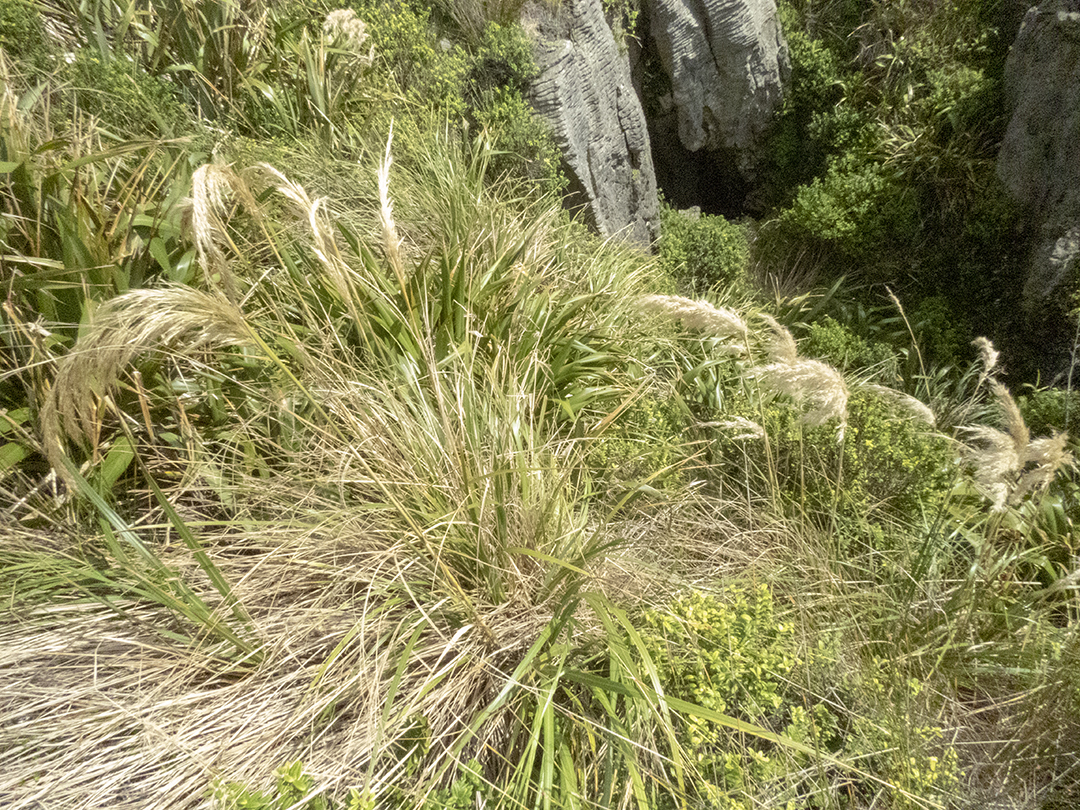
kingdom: Plantae
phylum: Tracheophyta
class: Liliopsida
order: Poales
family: Poaceae
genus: Austroderia
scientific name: Austroderia richardii
